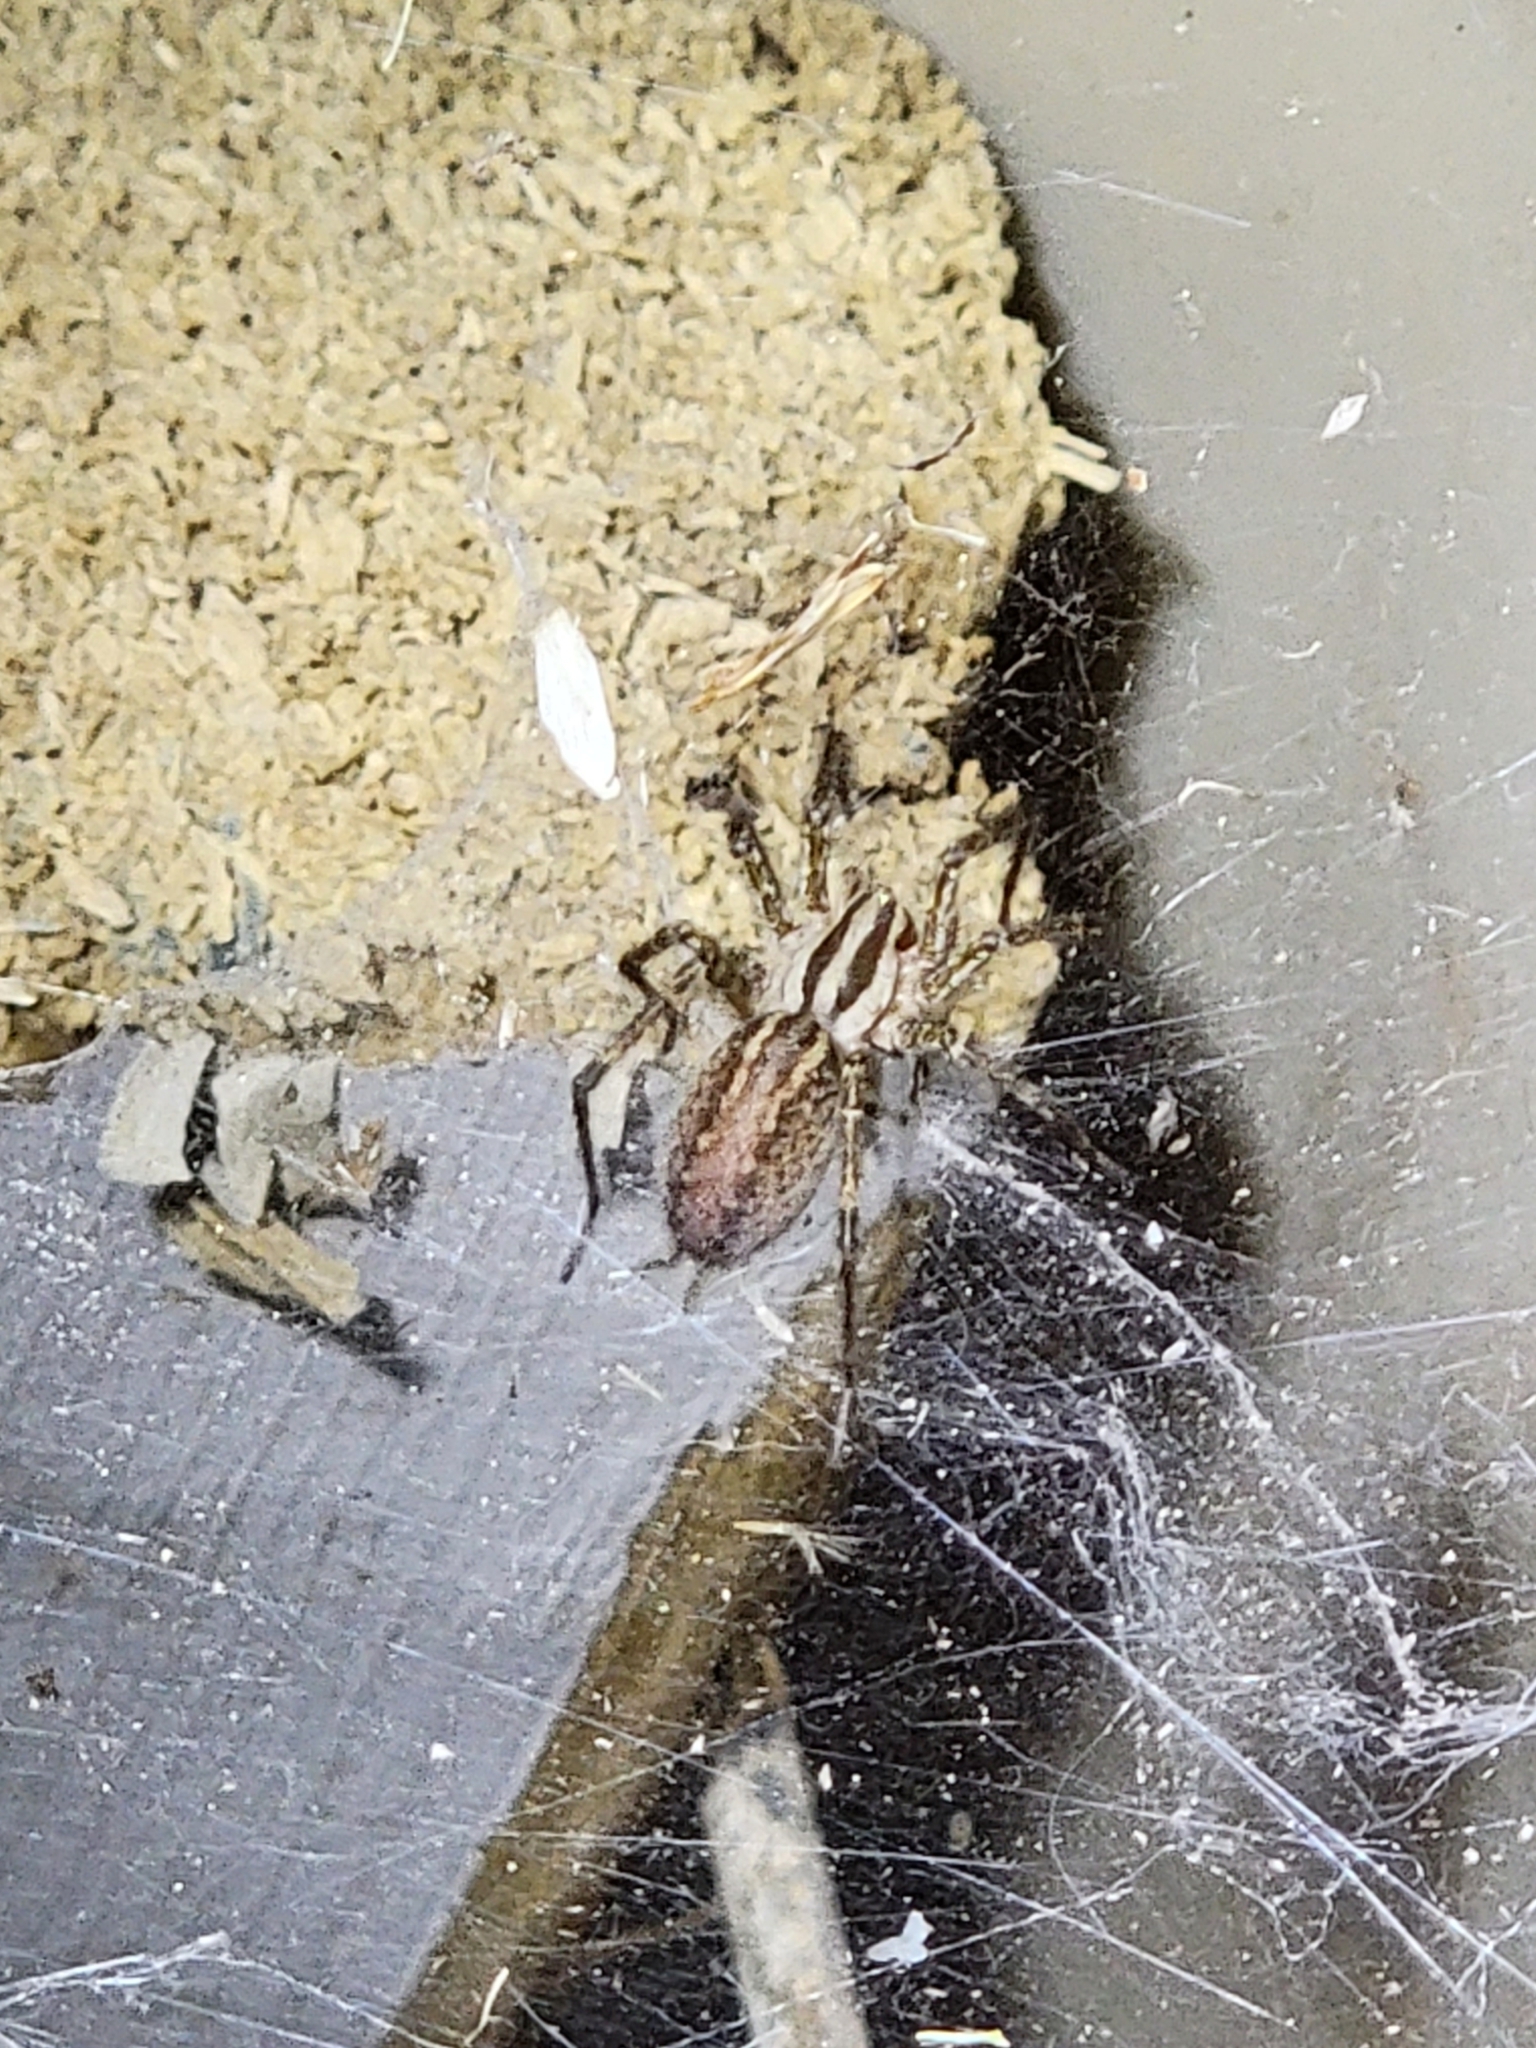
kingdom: Animalia
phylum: Arthropoda
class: Arachnida
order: Araneae
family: Agelenidae
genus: Agelenopsis
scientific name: Agelenopsis
